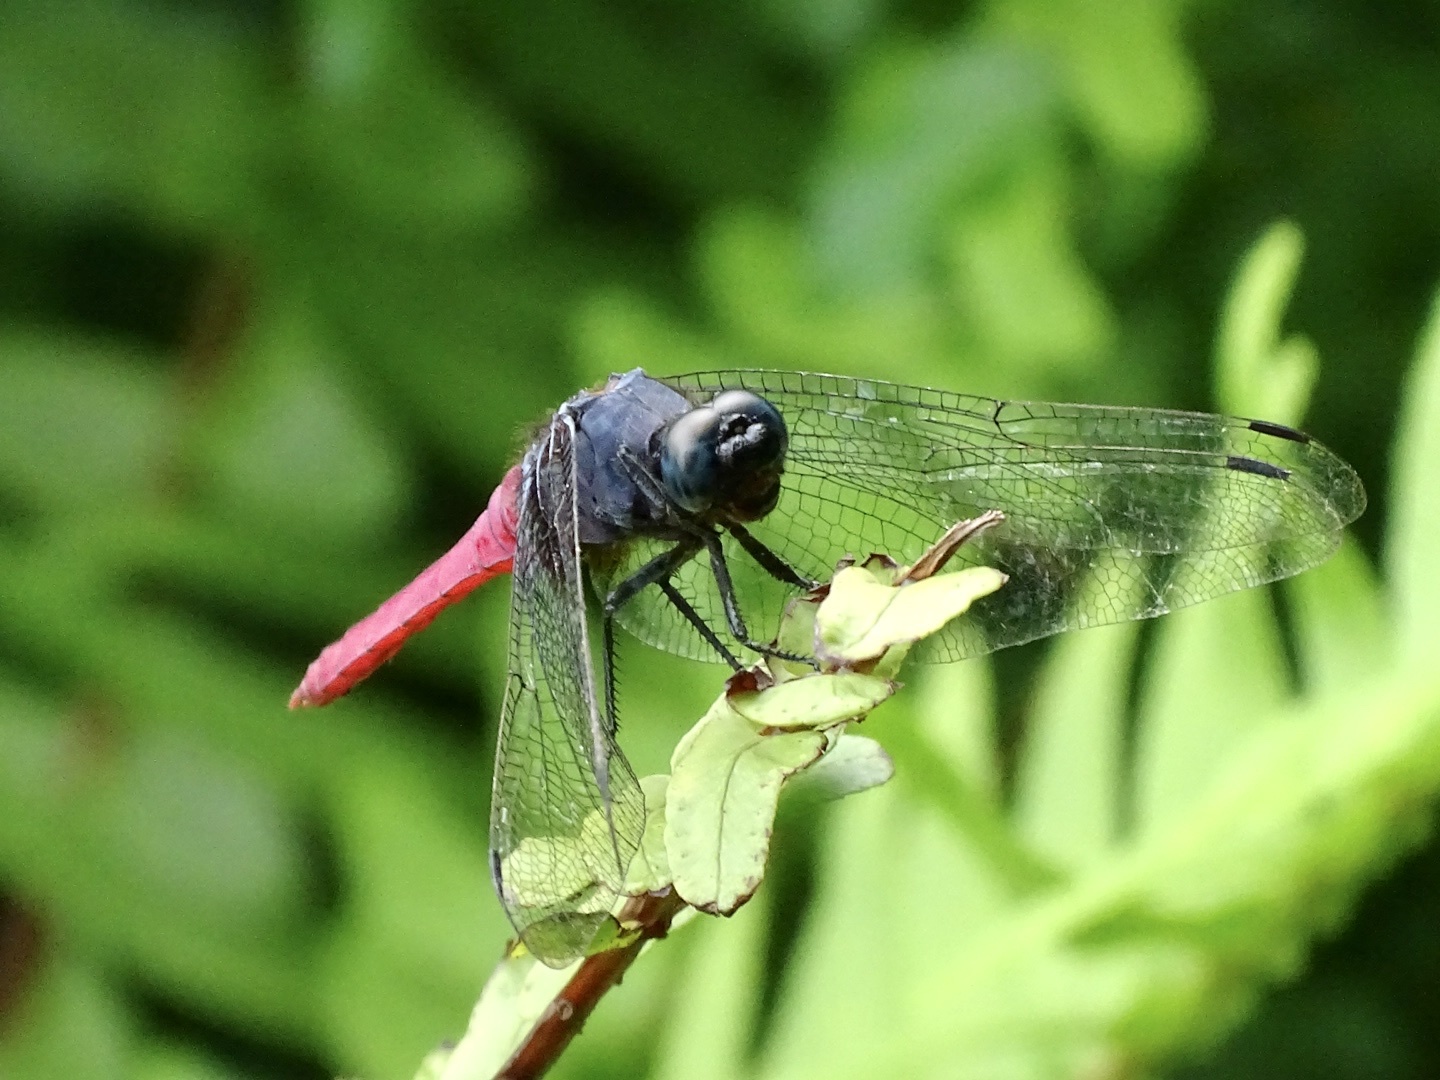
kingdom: Animalia
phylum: Arthropoda
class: Insecta
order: Odonata
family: Libellulidae
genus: Orthetrum
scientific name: Orthetrum pruinosum
